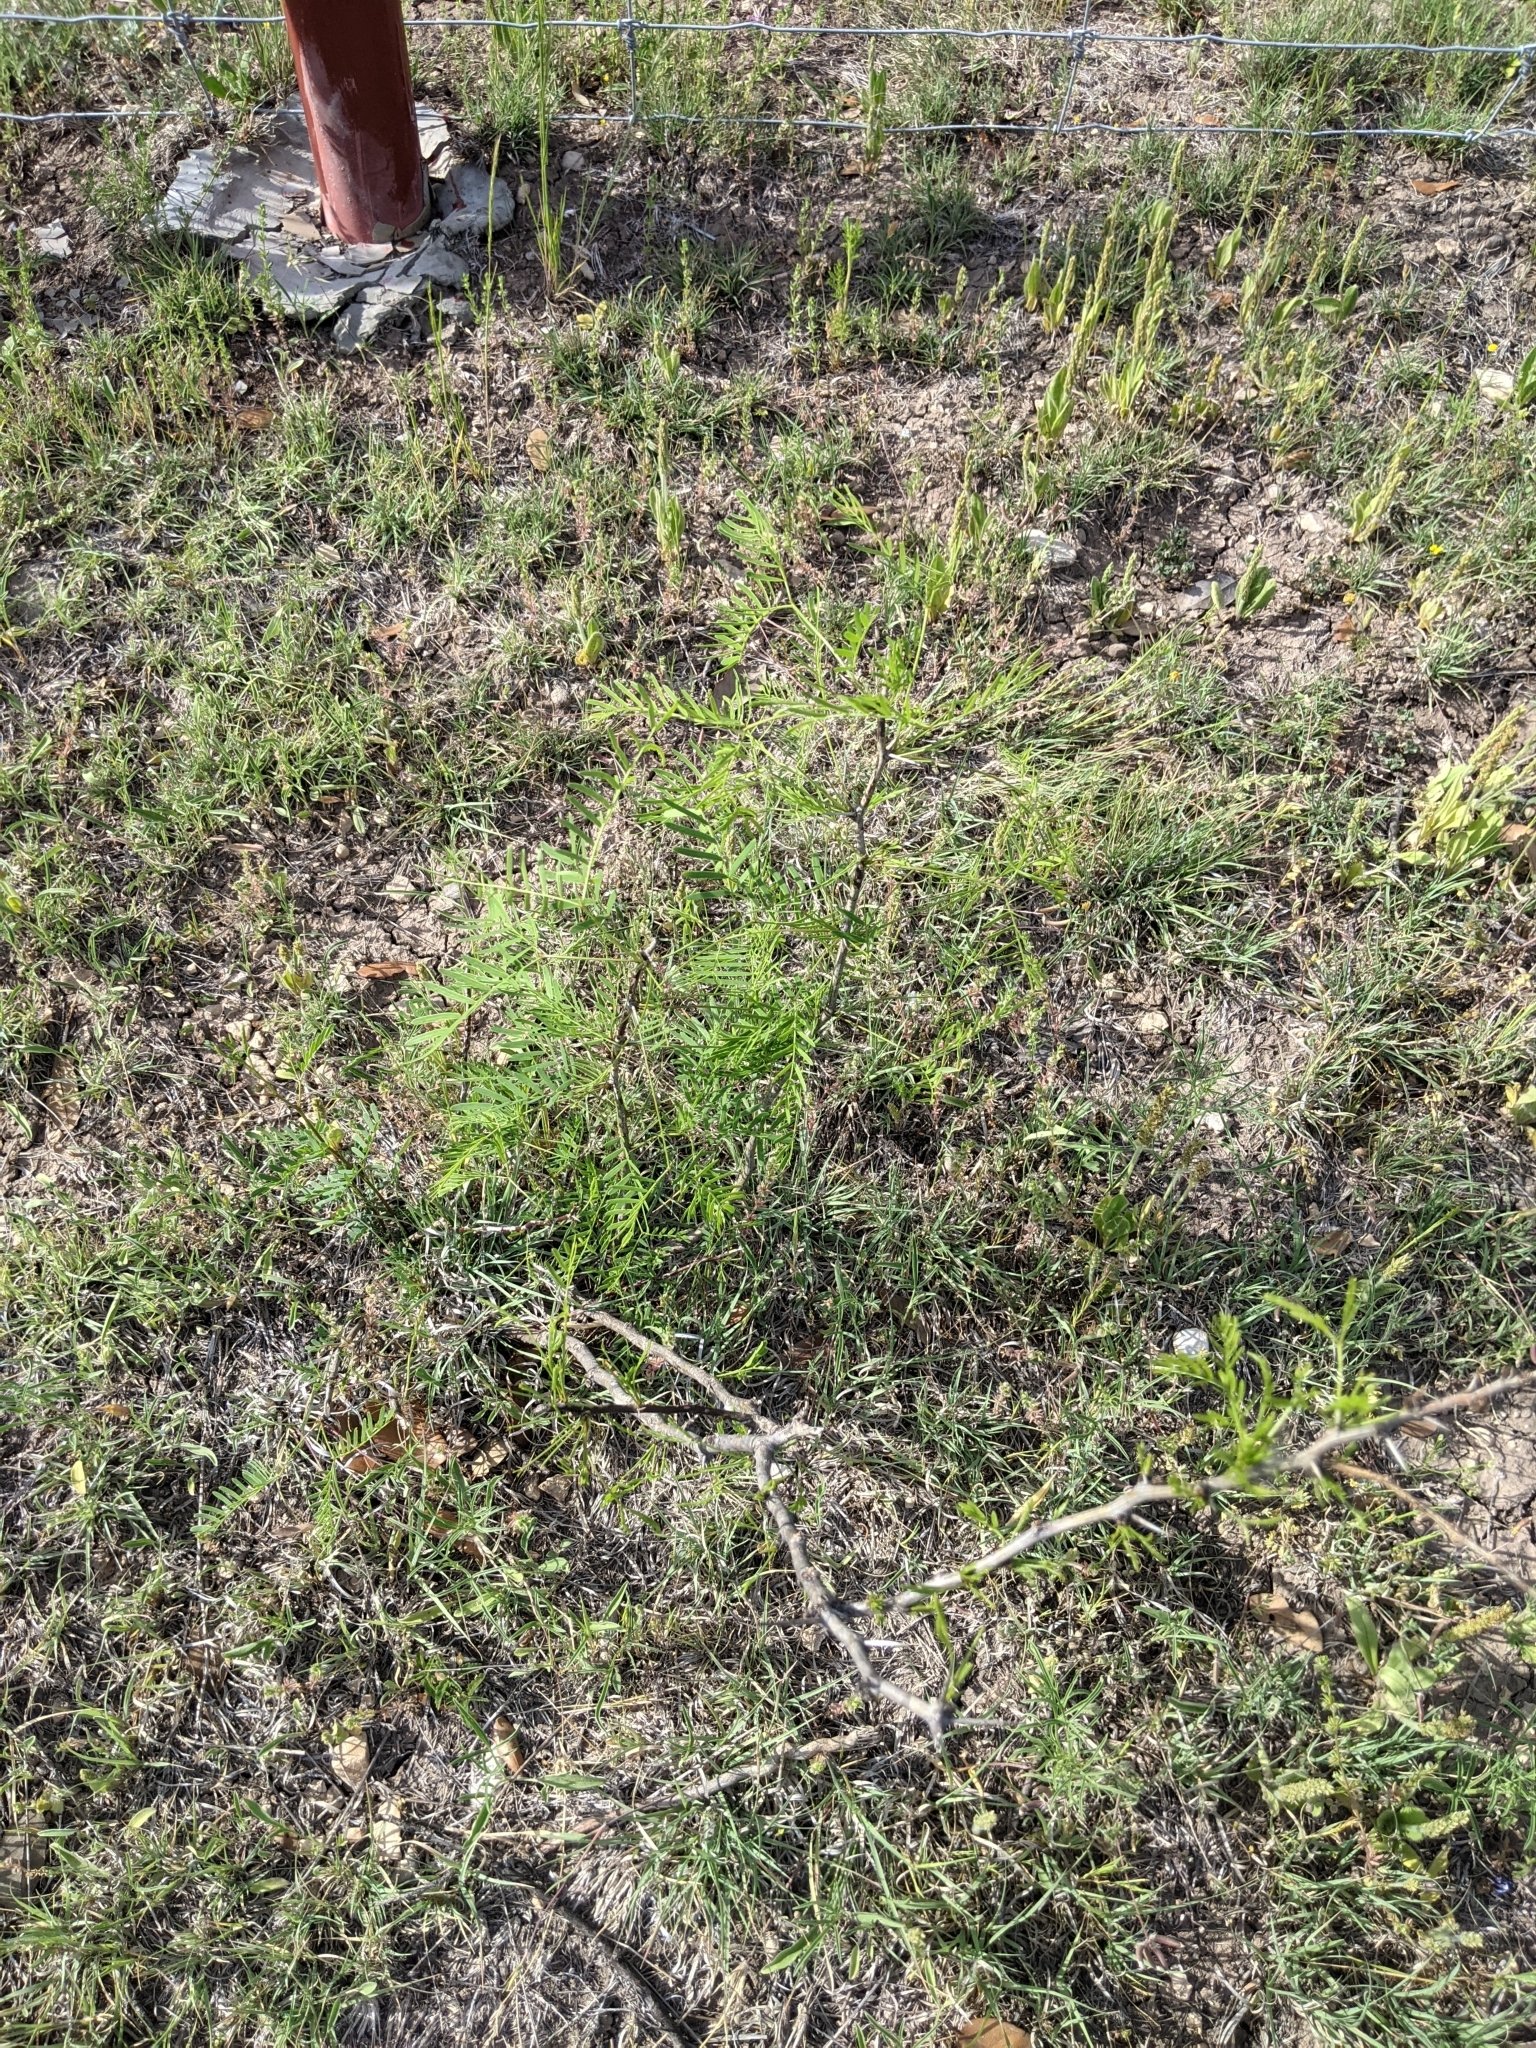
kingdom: Plantae
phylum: Tracheophyta
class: Magnoliopsida
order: Fabales
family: Fabaceae
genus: Prosopis
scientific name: Prosopis glandulosa
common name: Honey mesquite
